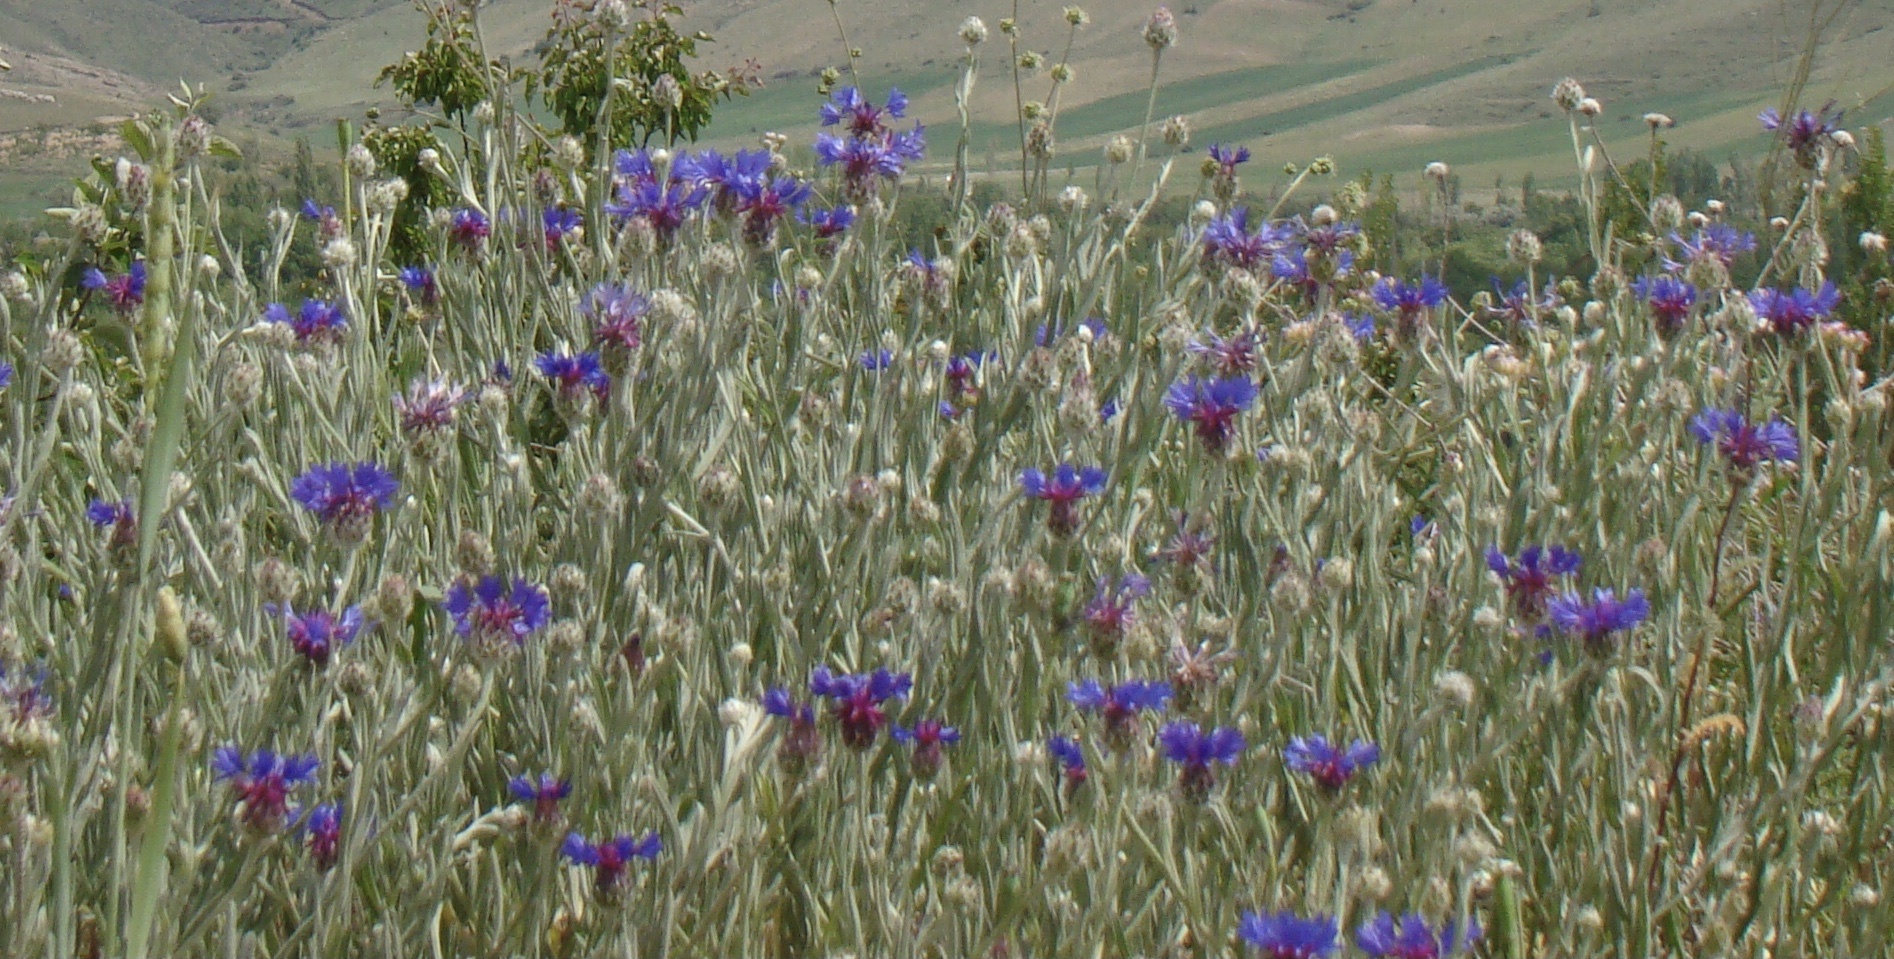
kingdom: Plantae
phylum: Tracheophyta
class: Magnoliopsida
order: Asterales
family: Asteraceae
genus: Centaurea
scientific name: Centaurea cyanus
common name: Cornflower
